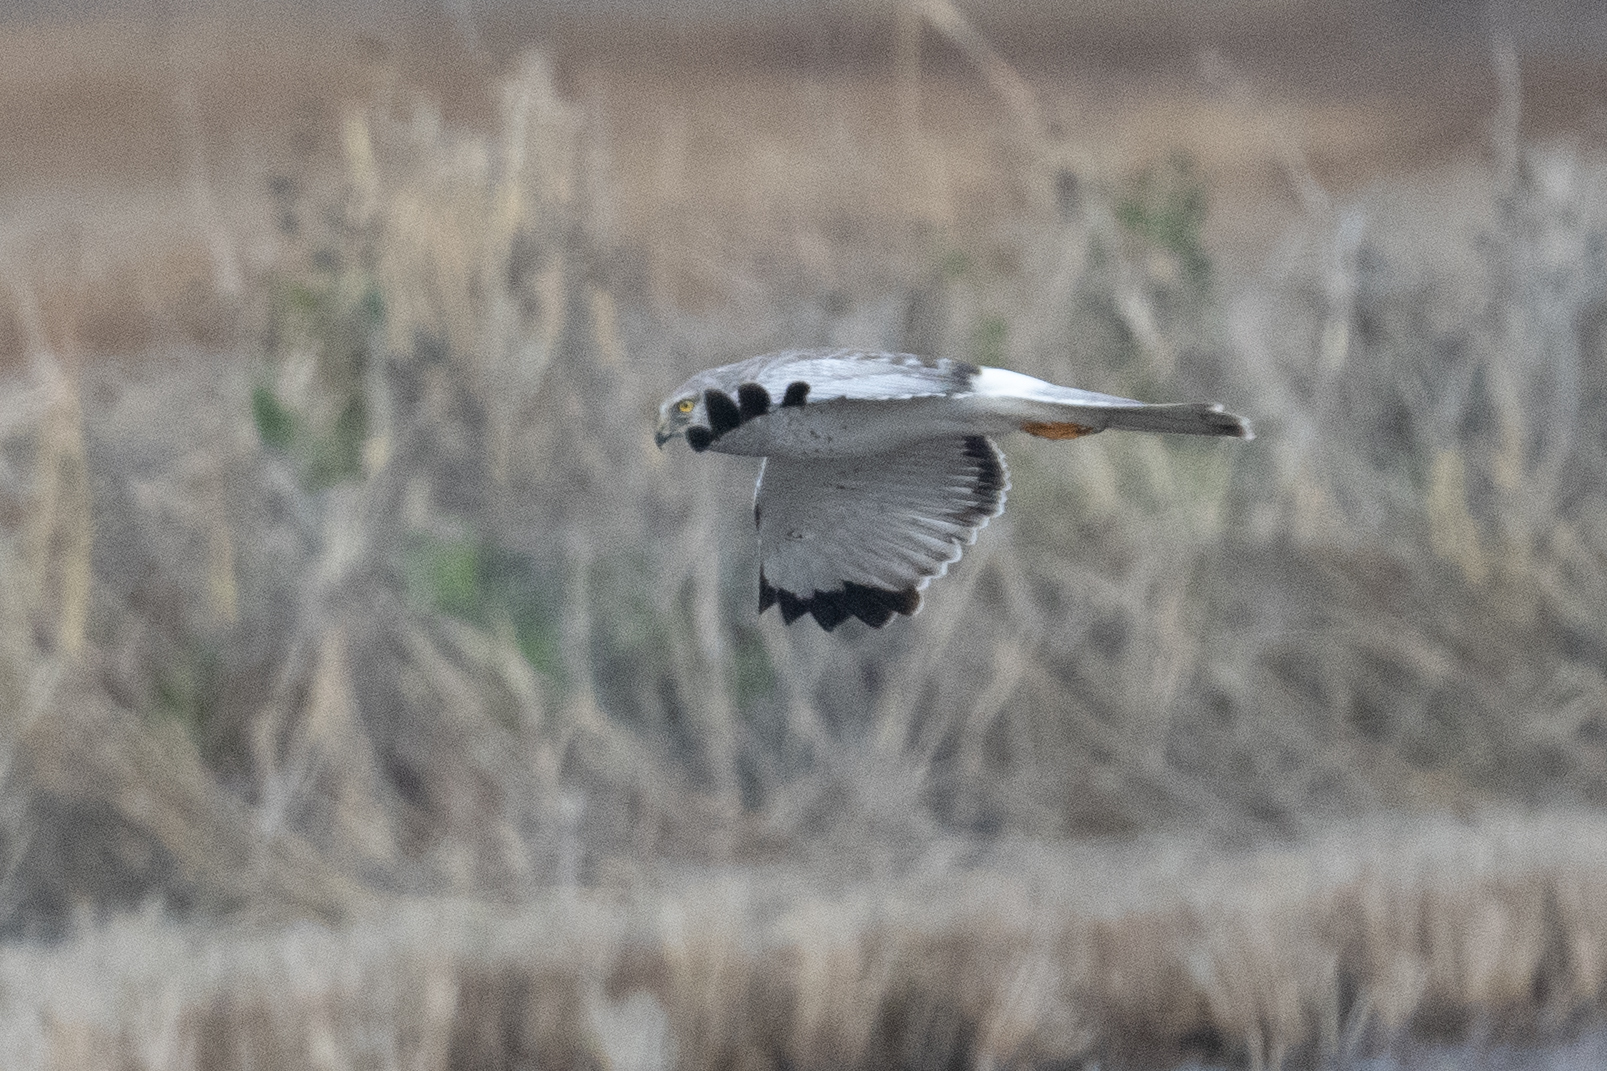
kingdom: Animalia
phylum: Chordata
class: Aves
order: Accipitriformes
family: Accipitridae
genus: Circus
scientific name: Circus cyaneus
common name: Hen harrier
